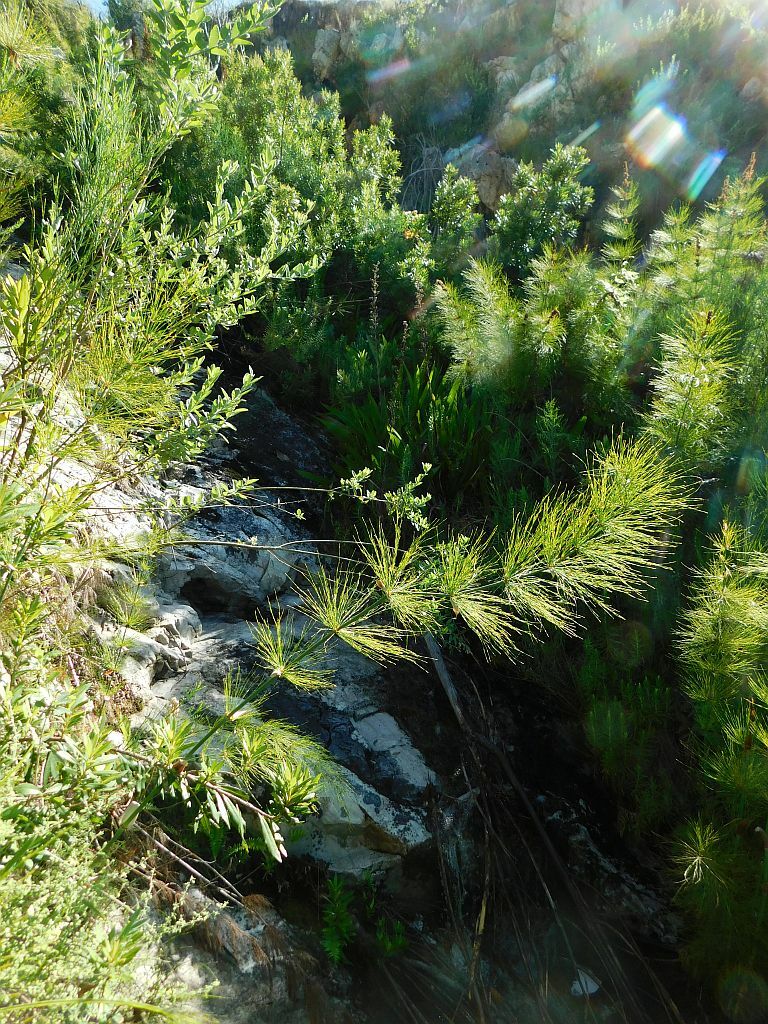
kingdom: Plantae
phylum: Tracheophyta
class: Liliopsida
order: Poales
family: Restionaceae
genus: Elegia
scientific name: Elegia capensis
